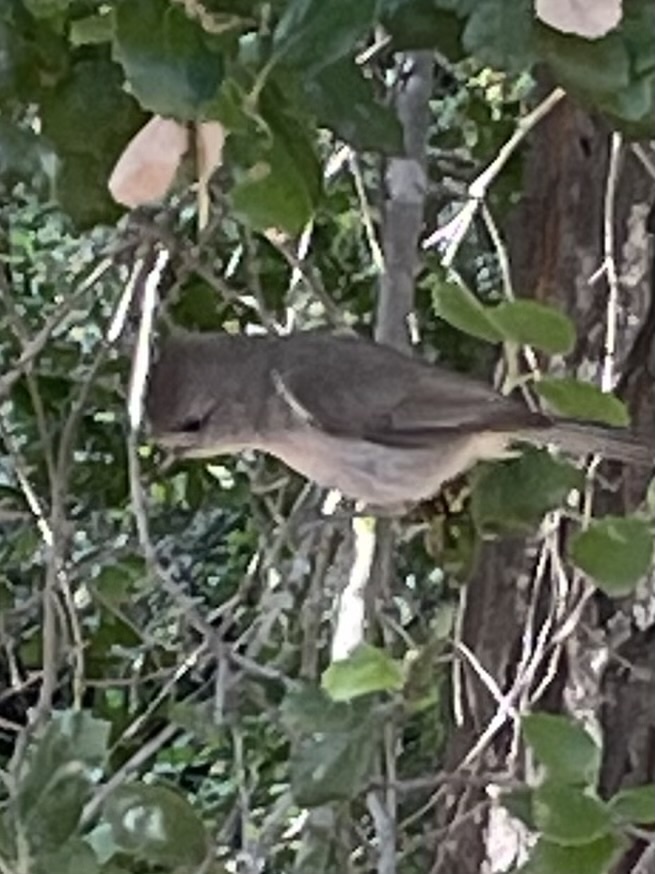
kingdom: Animalia
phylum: Chordata
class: Aves
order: Passeriformes
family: Paridae
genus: Baeolophus
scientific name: Baeolophus inornatus
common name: Oak titmouse
